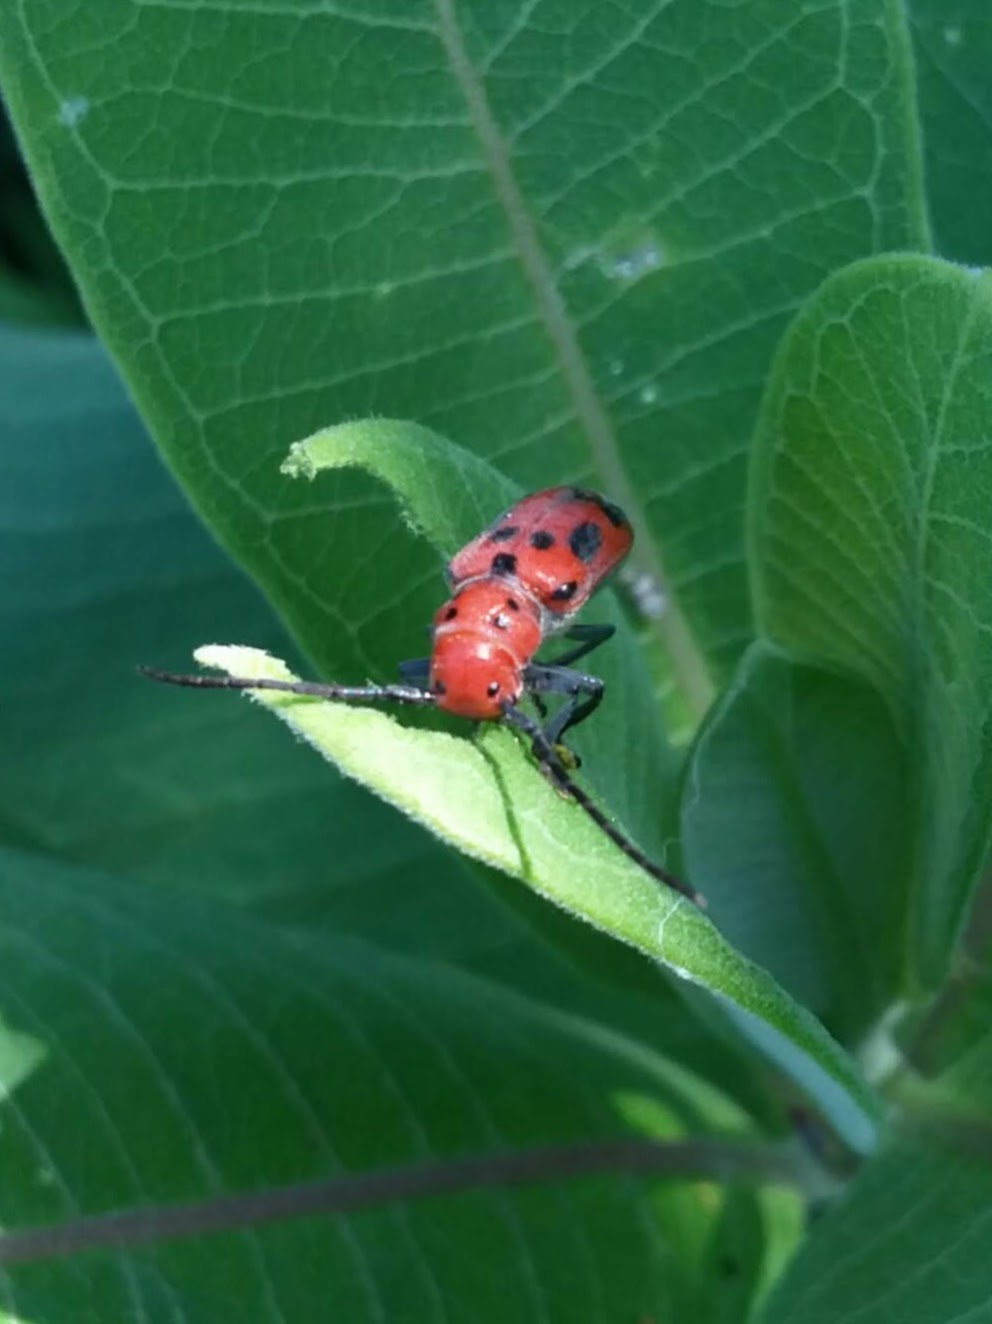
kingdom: Animalia
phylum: Arthropoda
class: Insecta
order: Coleoptera
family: Cerambycidae
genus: Tetraopes
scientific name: Tetraopes tetrophthalmus
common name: Red milkweed beetle
